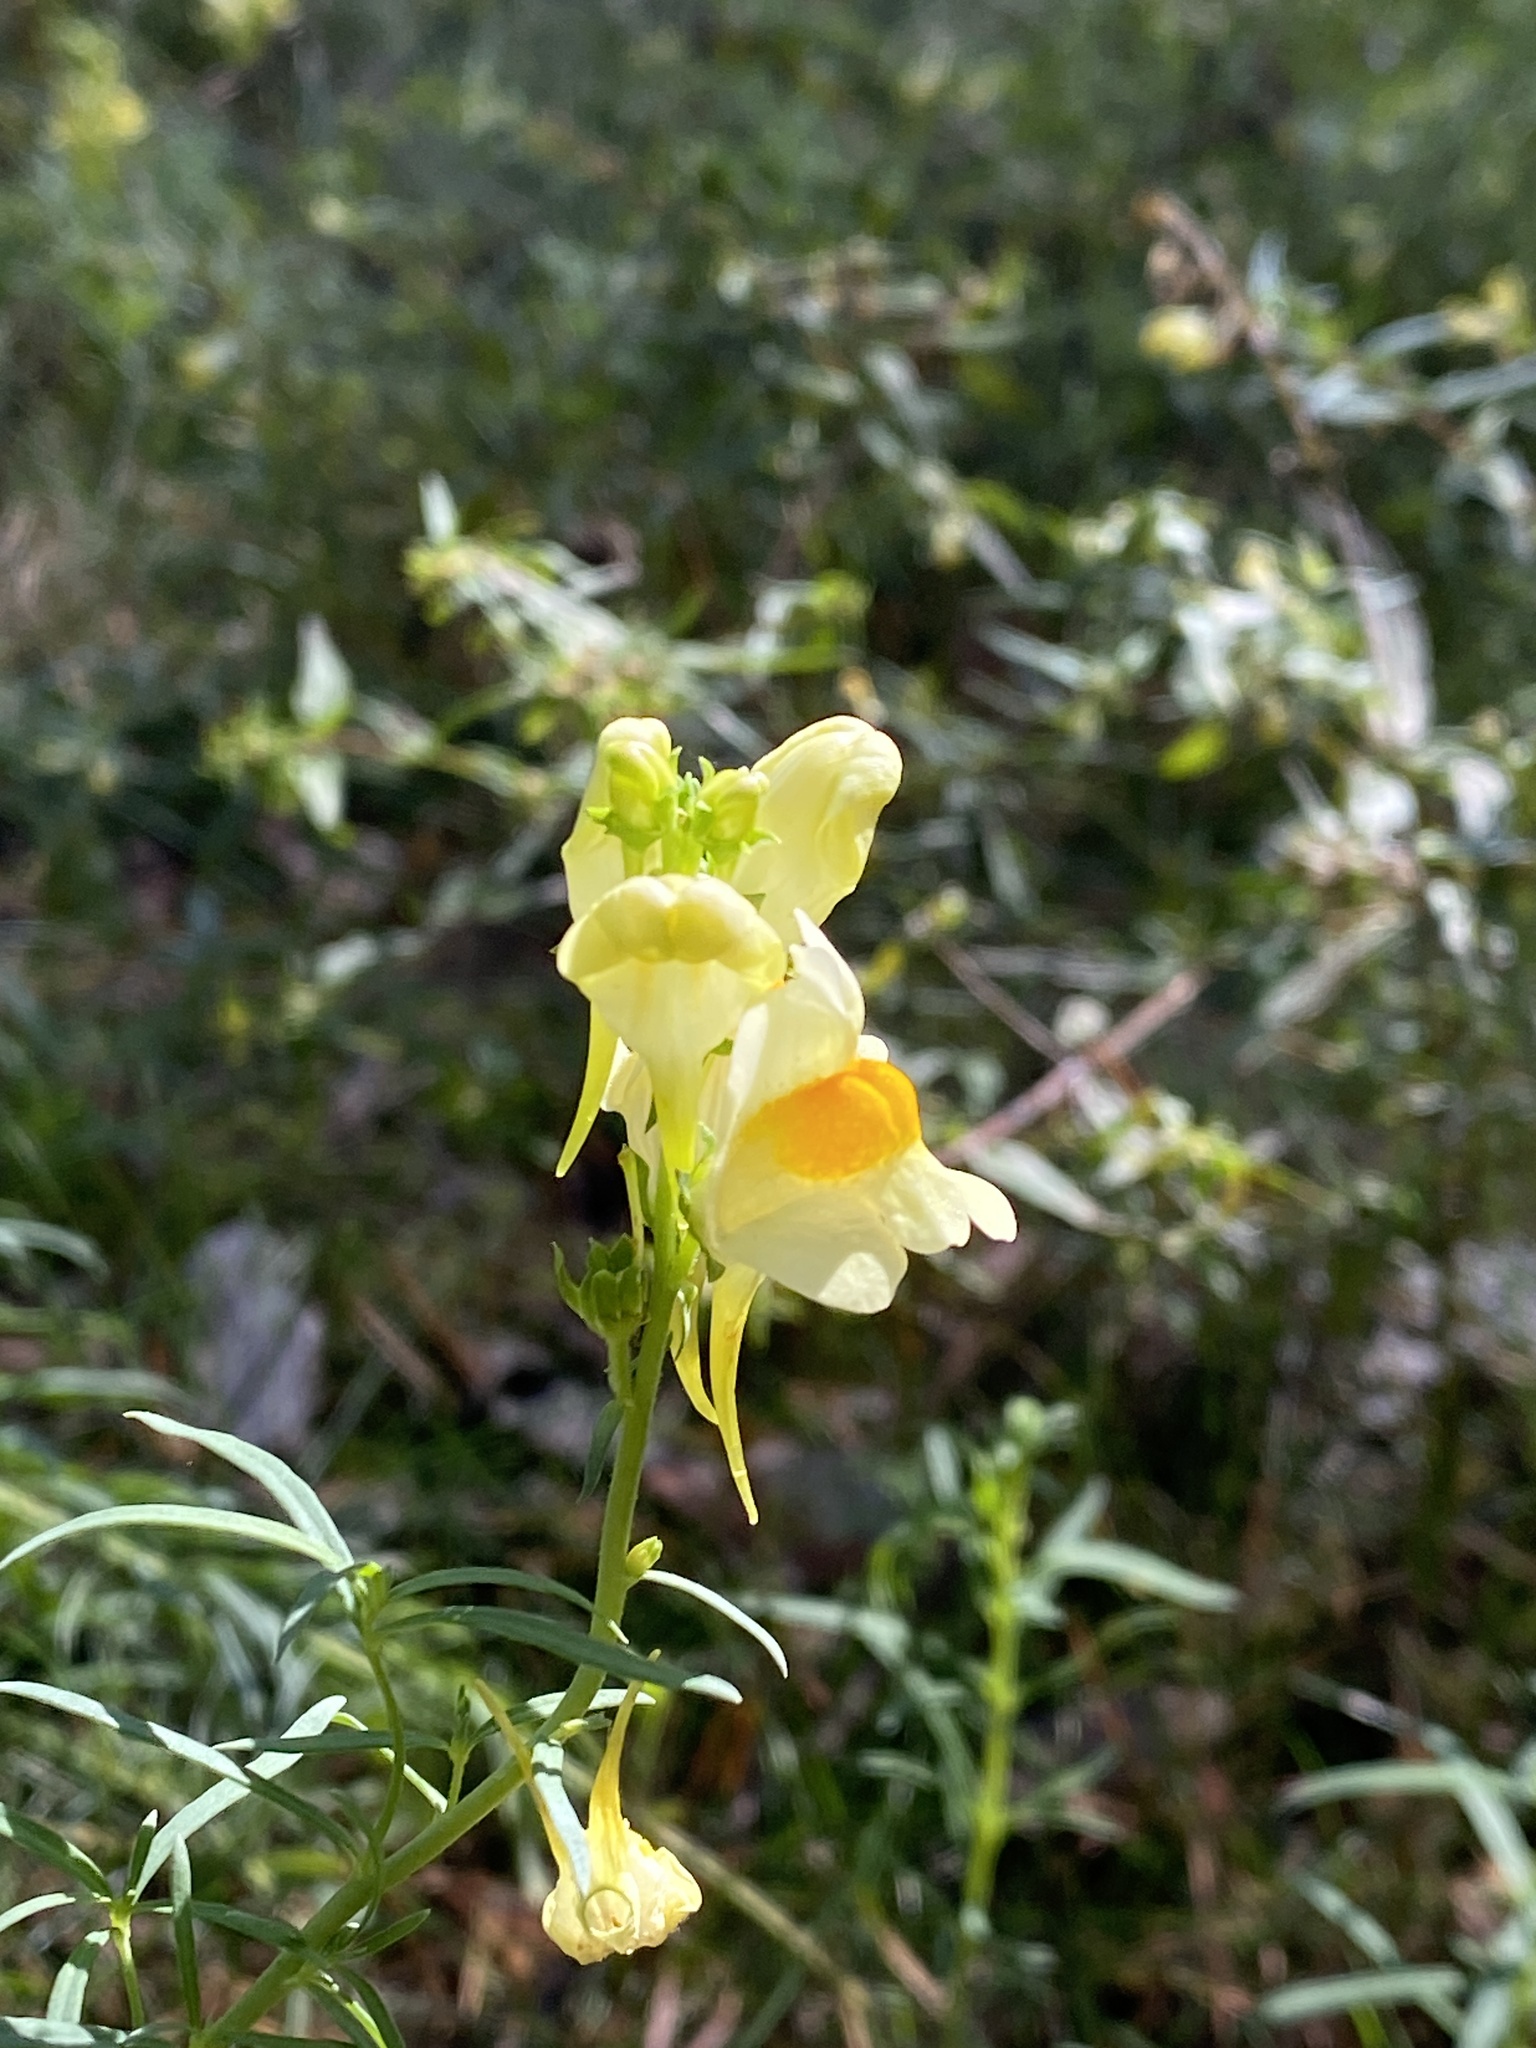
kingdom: Plantae
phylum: Tracheophyta
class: Magnoliopsida
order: Lamiales
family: Plantaginaceae
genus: Linaria
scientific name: Linaria vulgaris
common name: Butter and eggs
